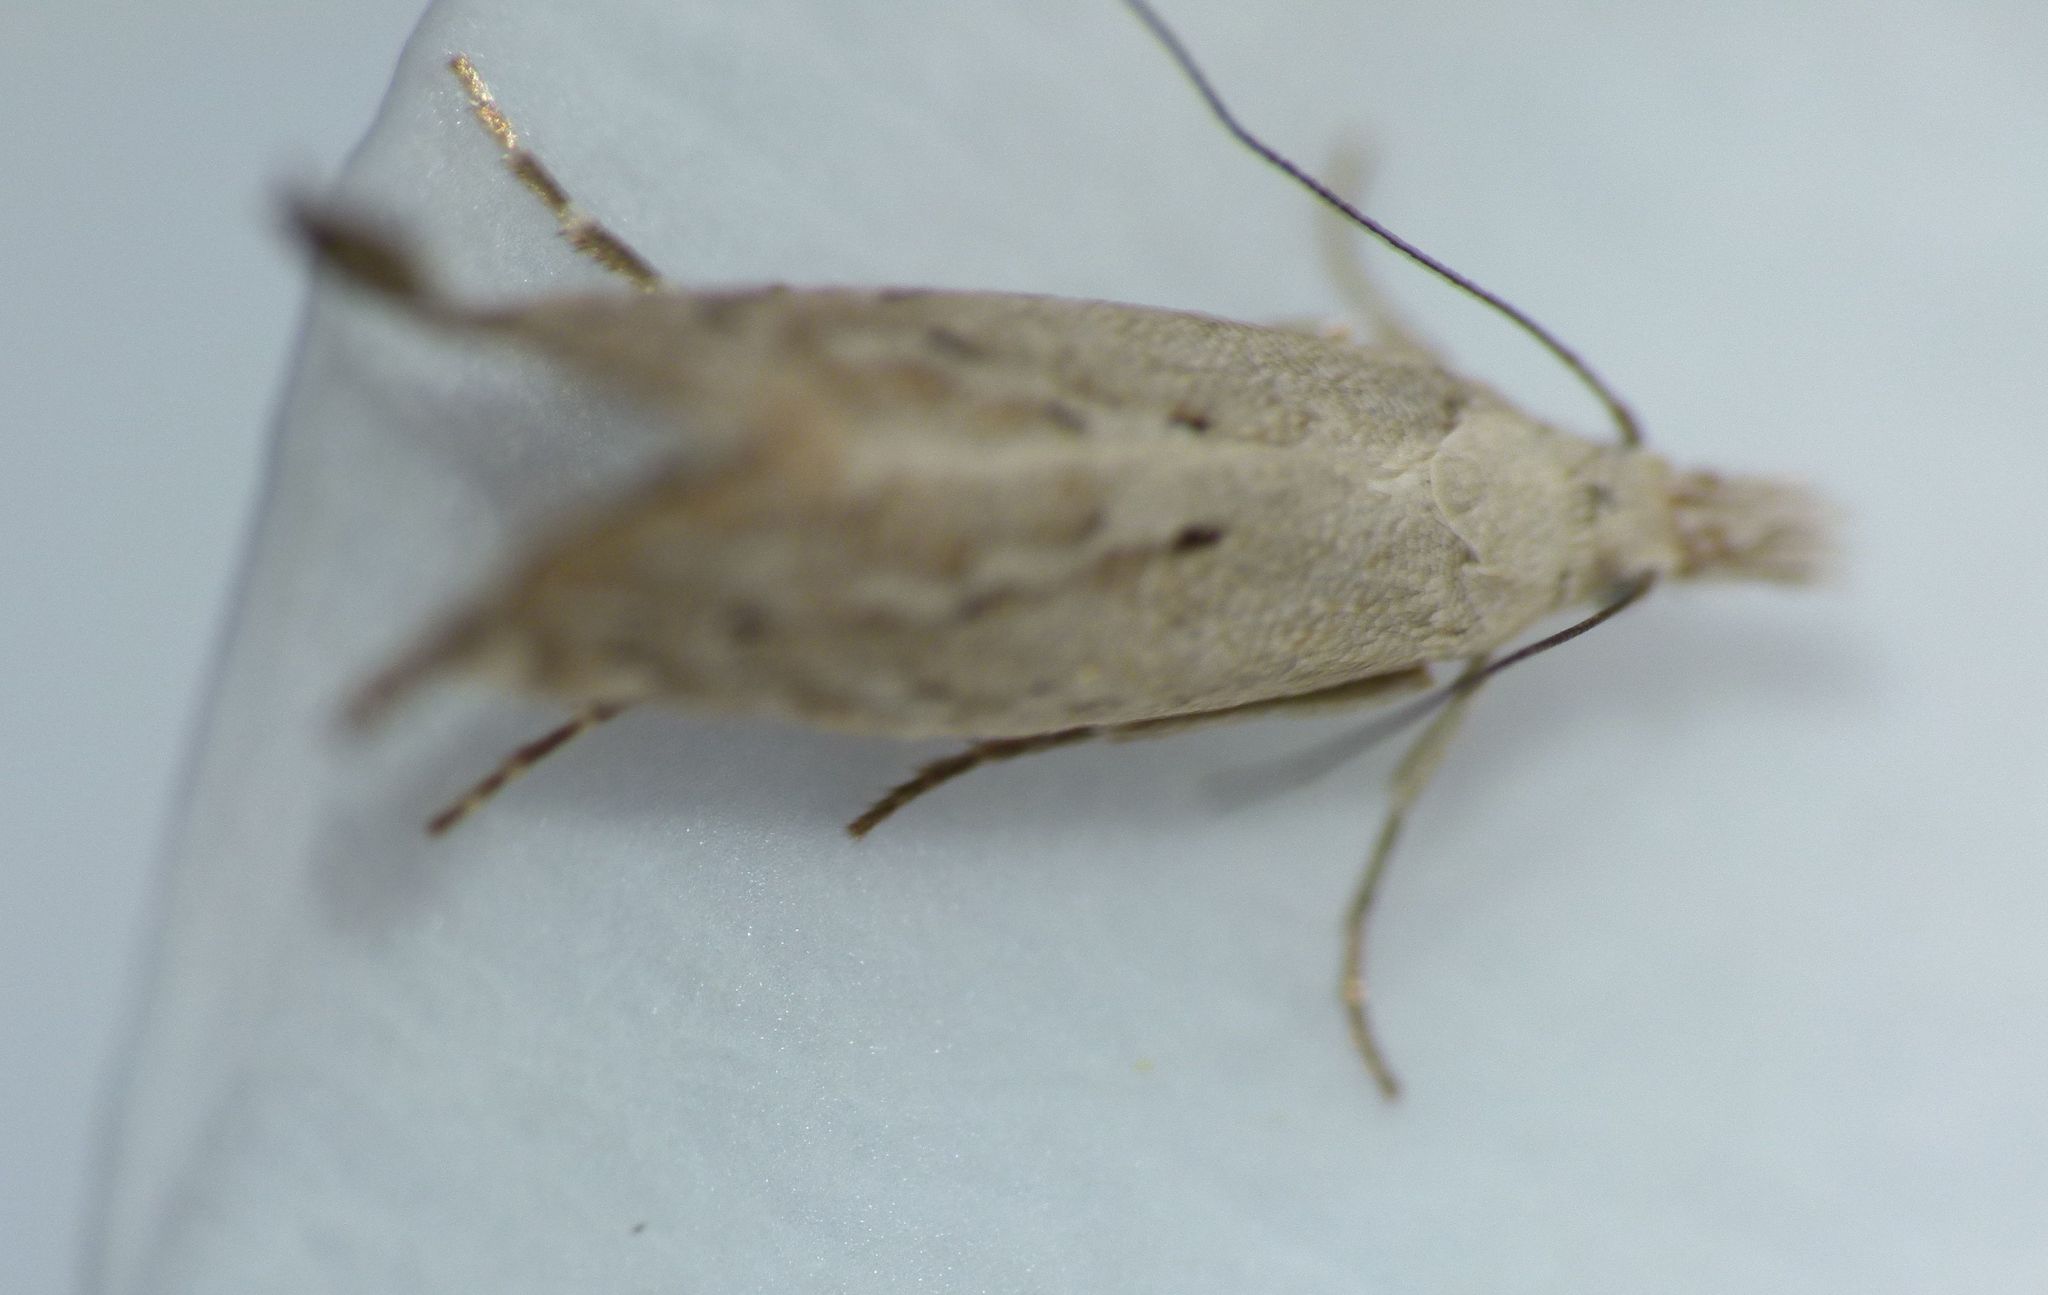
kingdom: Animalia
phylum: Arthropoda
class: Insecta
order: Lepidoptera
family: Glyphipterigidae
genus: Glyphipterix
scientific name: Glyphipterix achlyoessa
